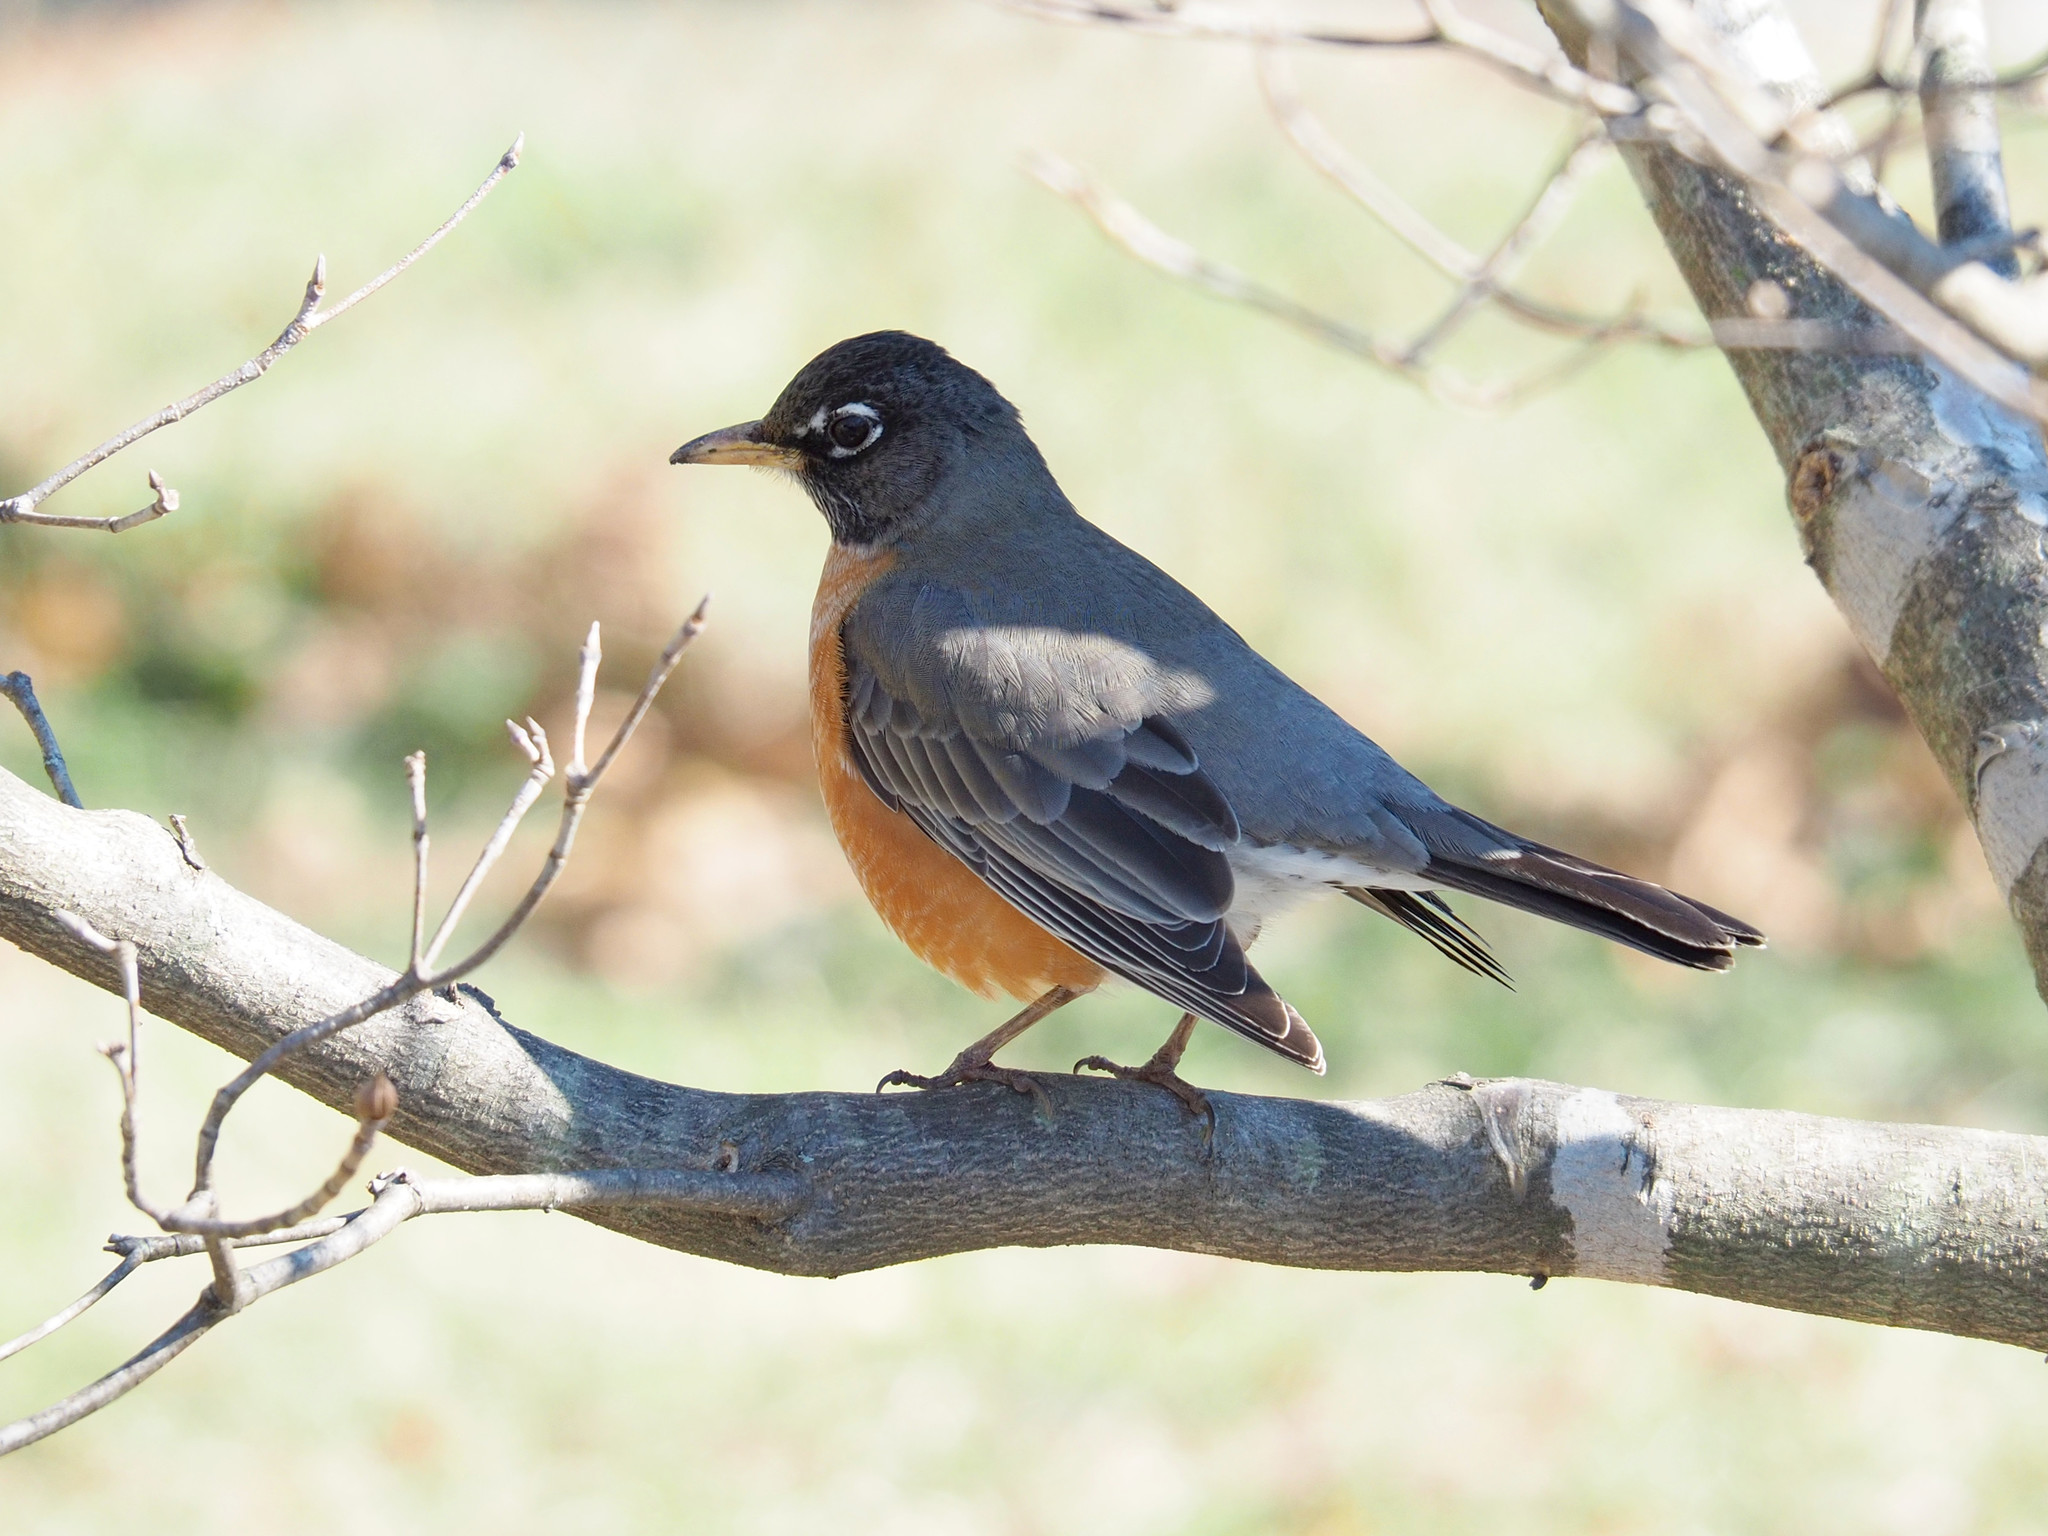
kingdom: Animalia
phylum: Chordata
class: Aves
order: Passeriformes
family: Turdidae
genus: Turdus
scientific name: Turdus migratorius
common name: American robin
